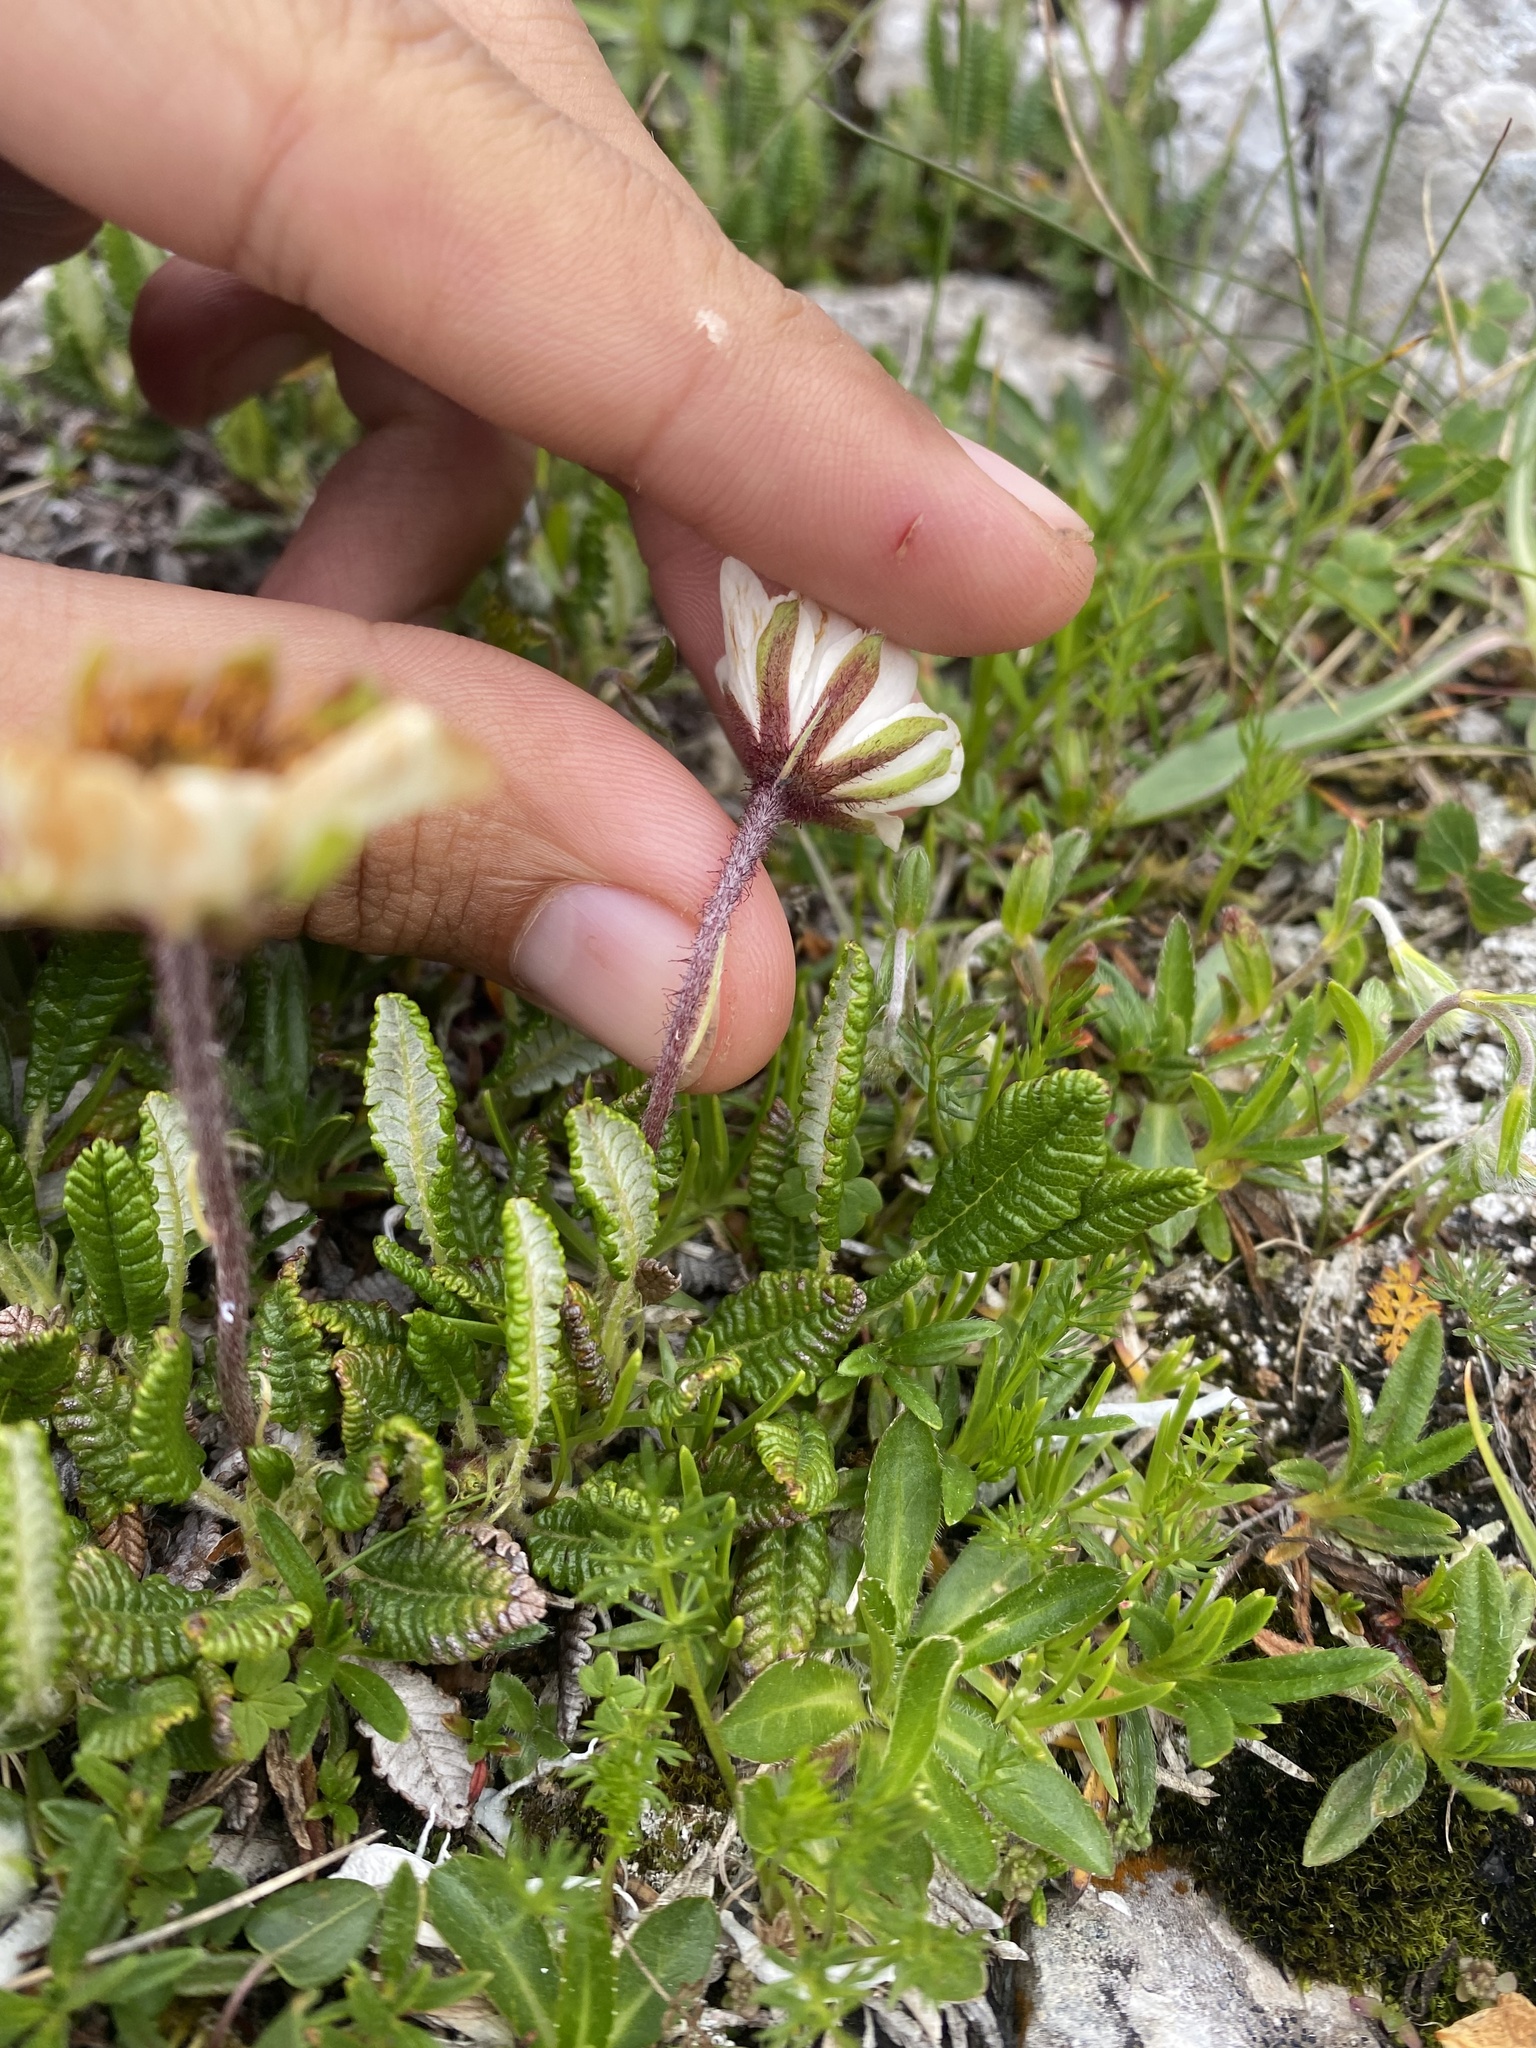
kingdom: Plantae
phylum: Tracheophyta
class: Magnoliopsida
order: Rosales
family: Rosaceae
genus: Dryas
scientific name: Dryas octopetala
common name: Eight-petal mountain-avens
